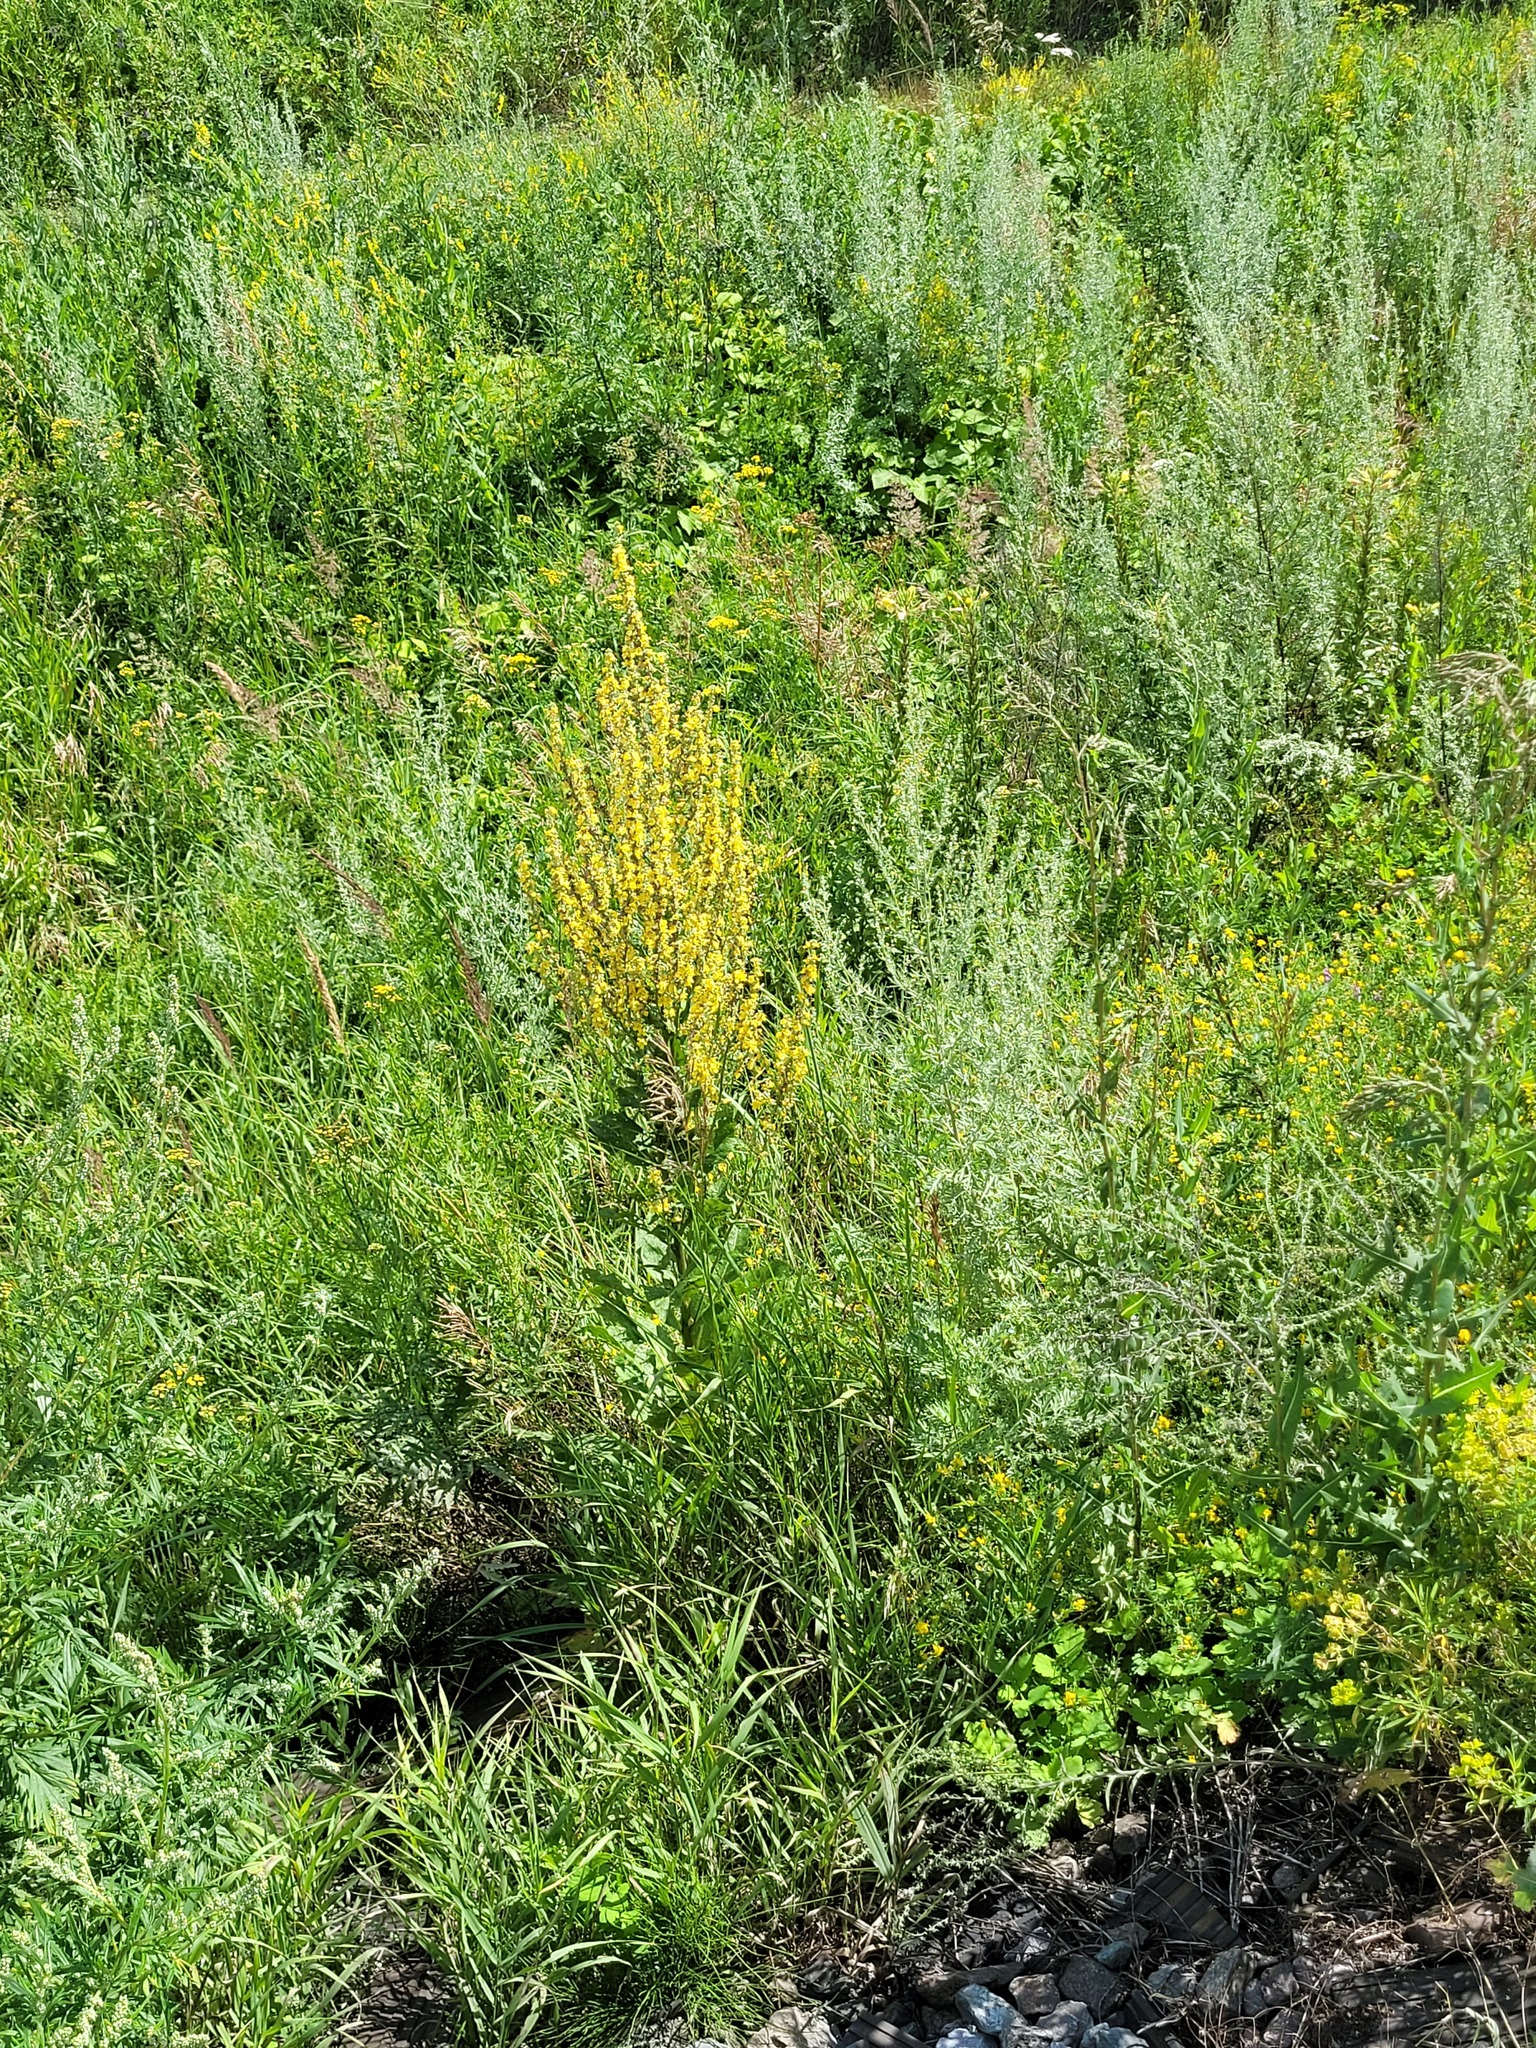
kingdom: Plantae
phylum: Tracheophyta
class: Magnoliopsida
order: Lamiales
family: Scrophulariaceae
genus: Verbascum
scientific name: Verbascum lychnitis
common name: White mullein
